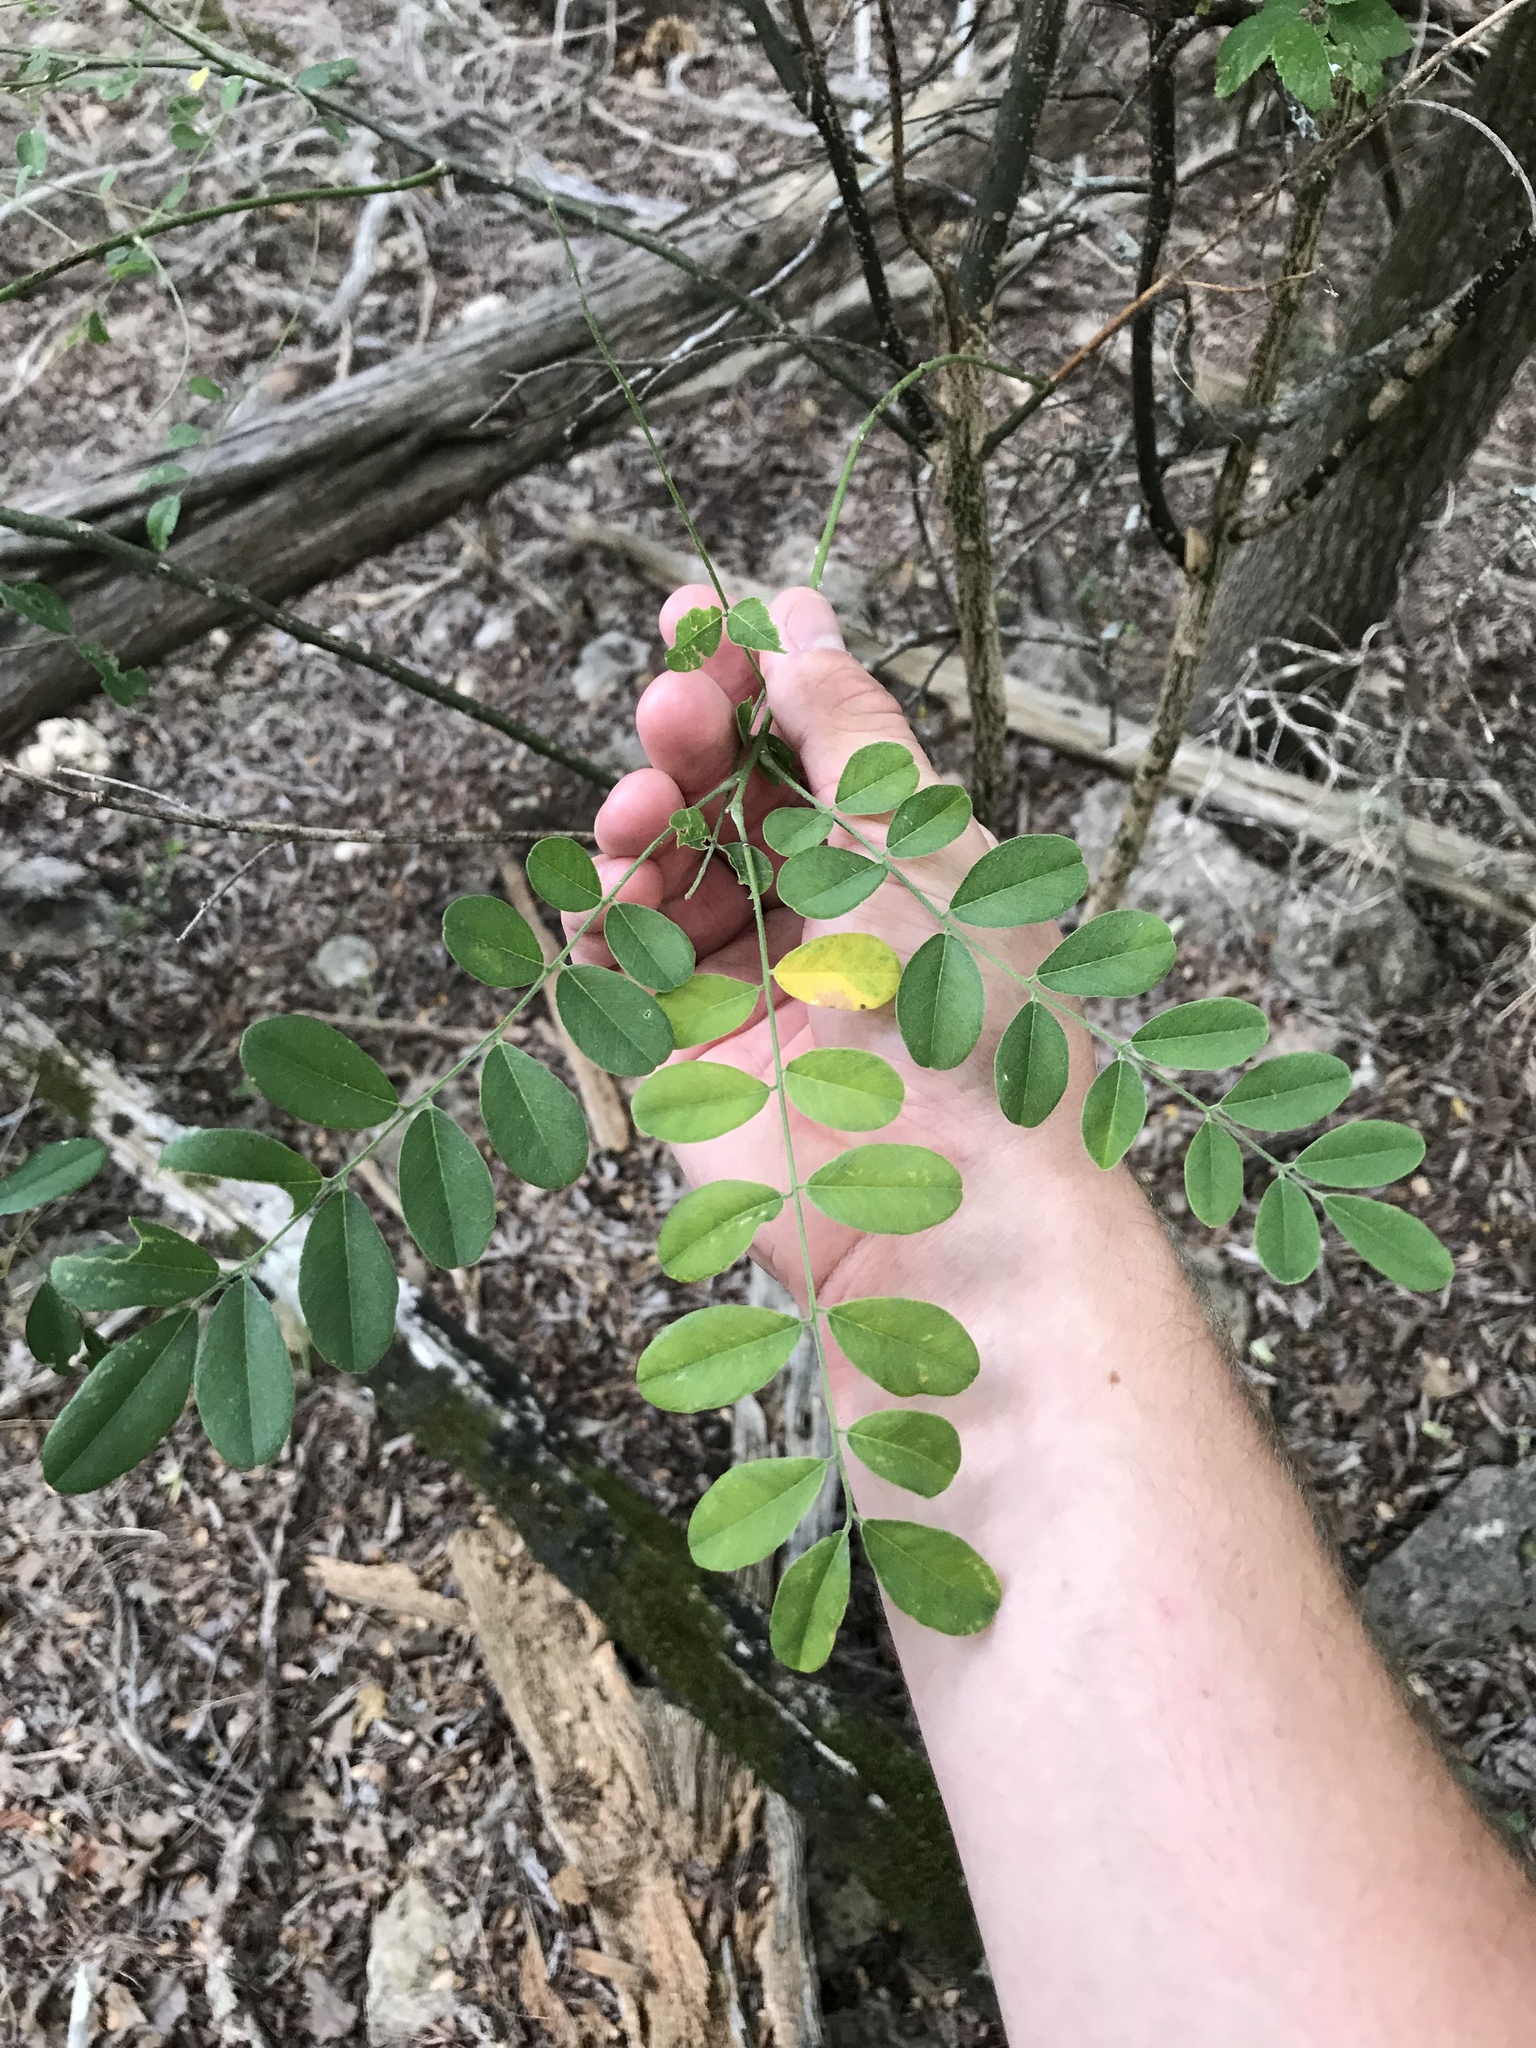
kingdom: Plantae
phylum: Tracheophyta
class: Magnoliopsida
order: Fabales
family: Fabaceae
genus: Styphnolobium
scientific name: Styphnolobium affine
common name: Texas sophora
